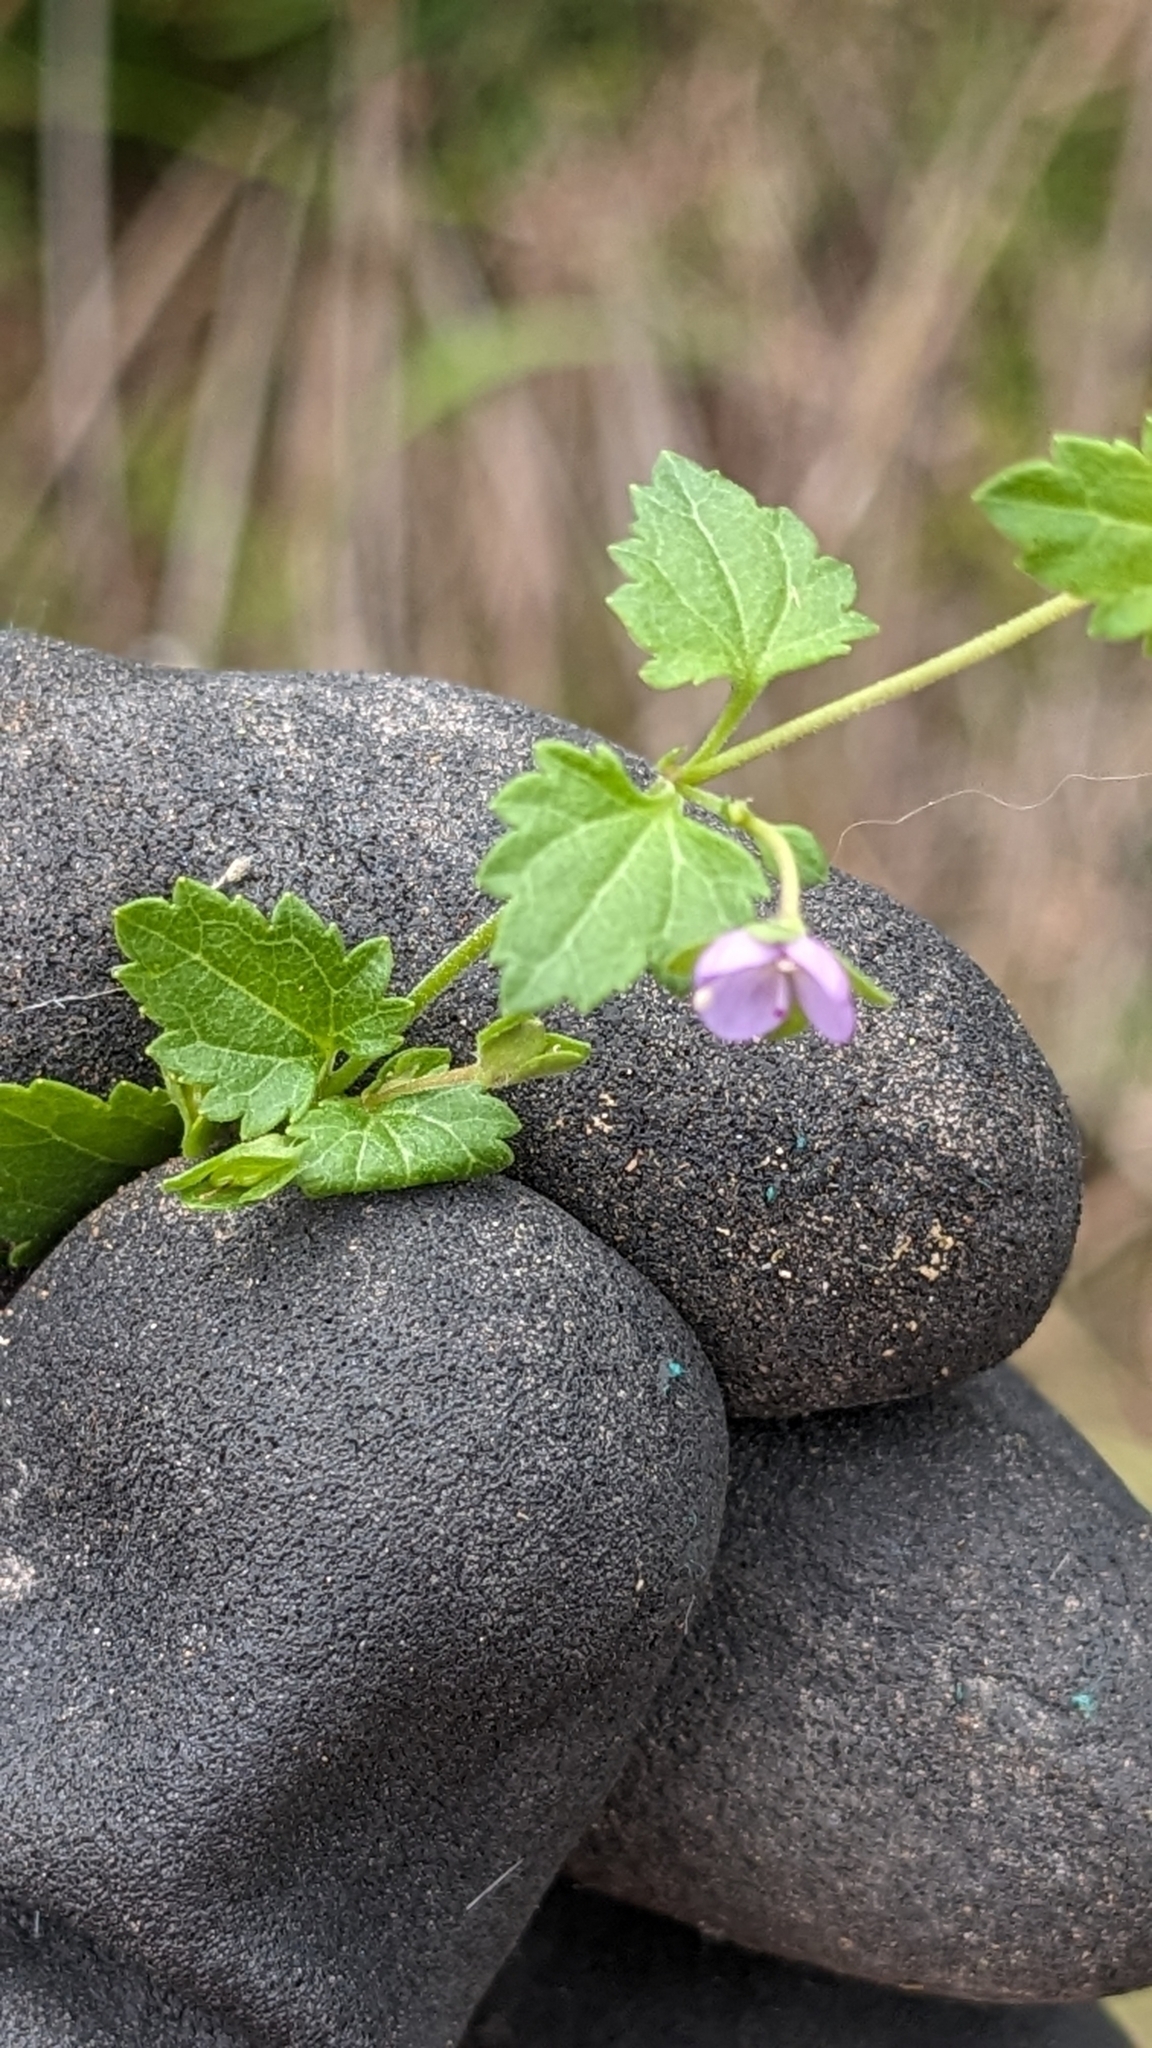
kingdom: Plantae
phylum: Tracheophyta
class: Magnoliopsida
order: Lamiales
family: Plantaginaceae
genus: Veronica
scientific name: Veronica plebeia
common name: Speedwell
